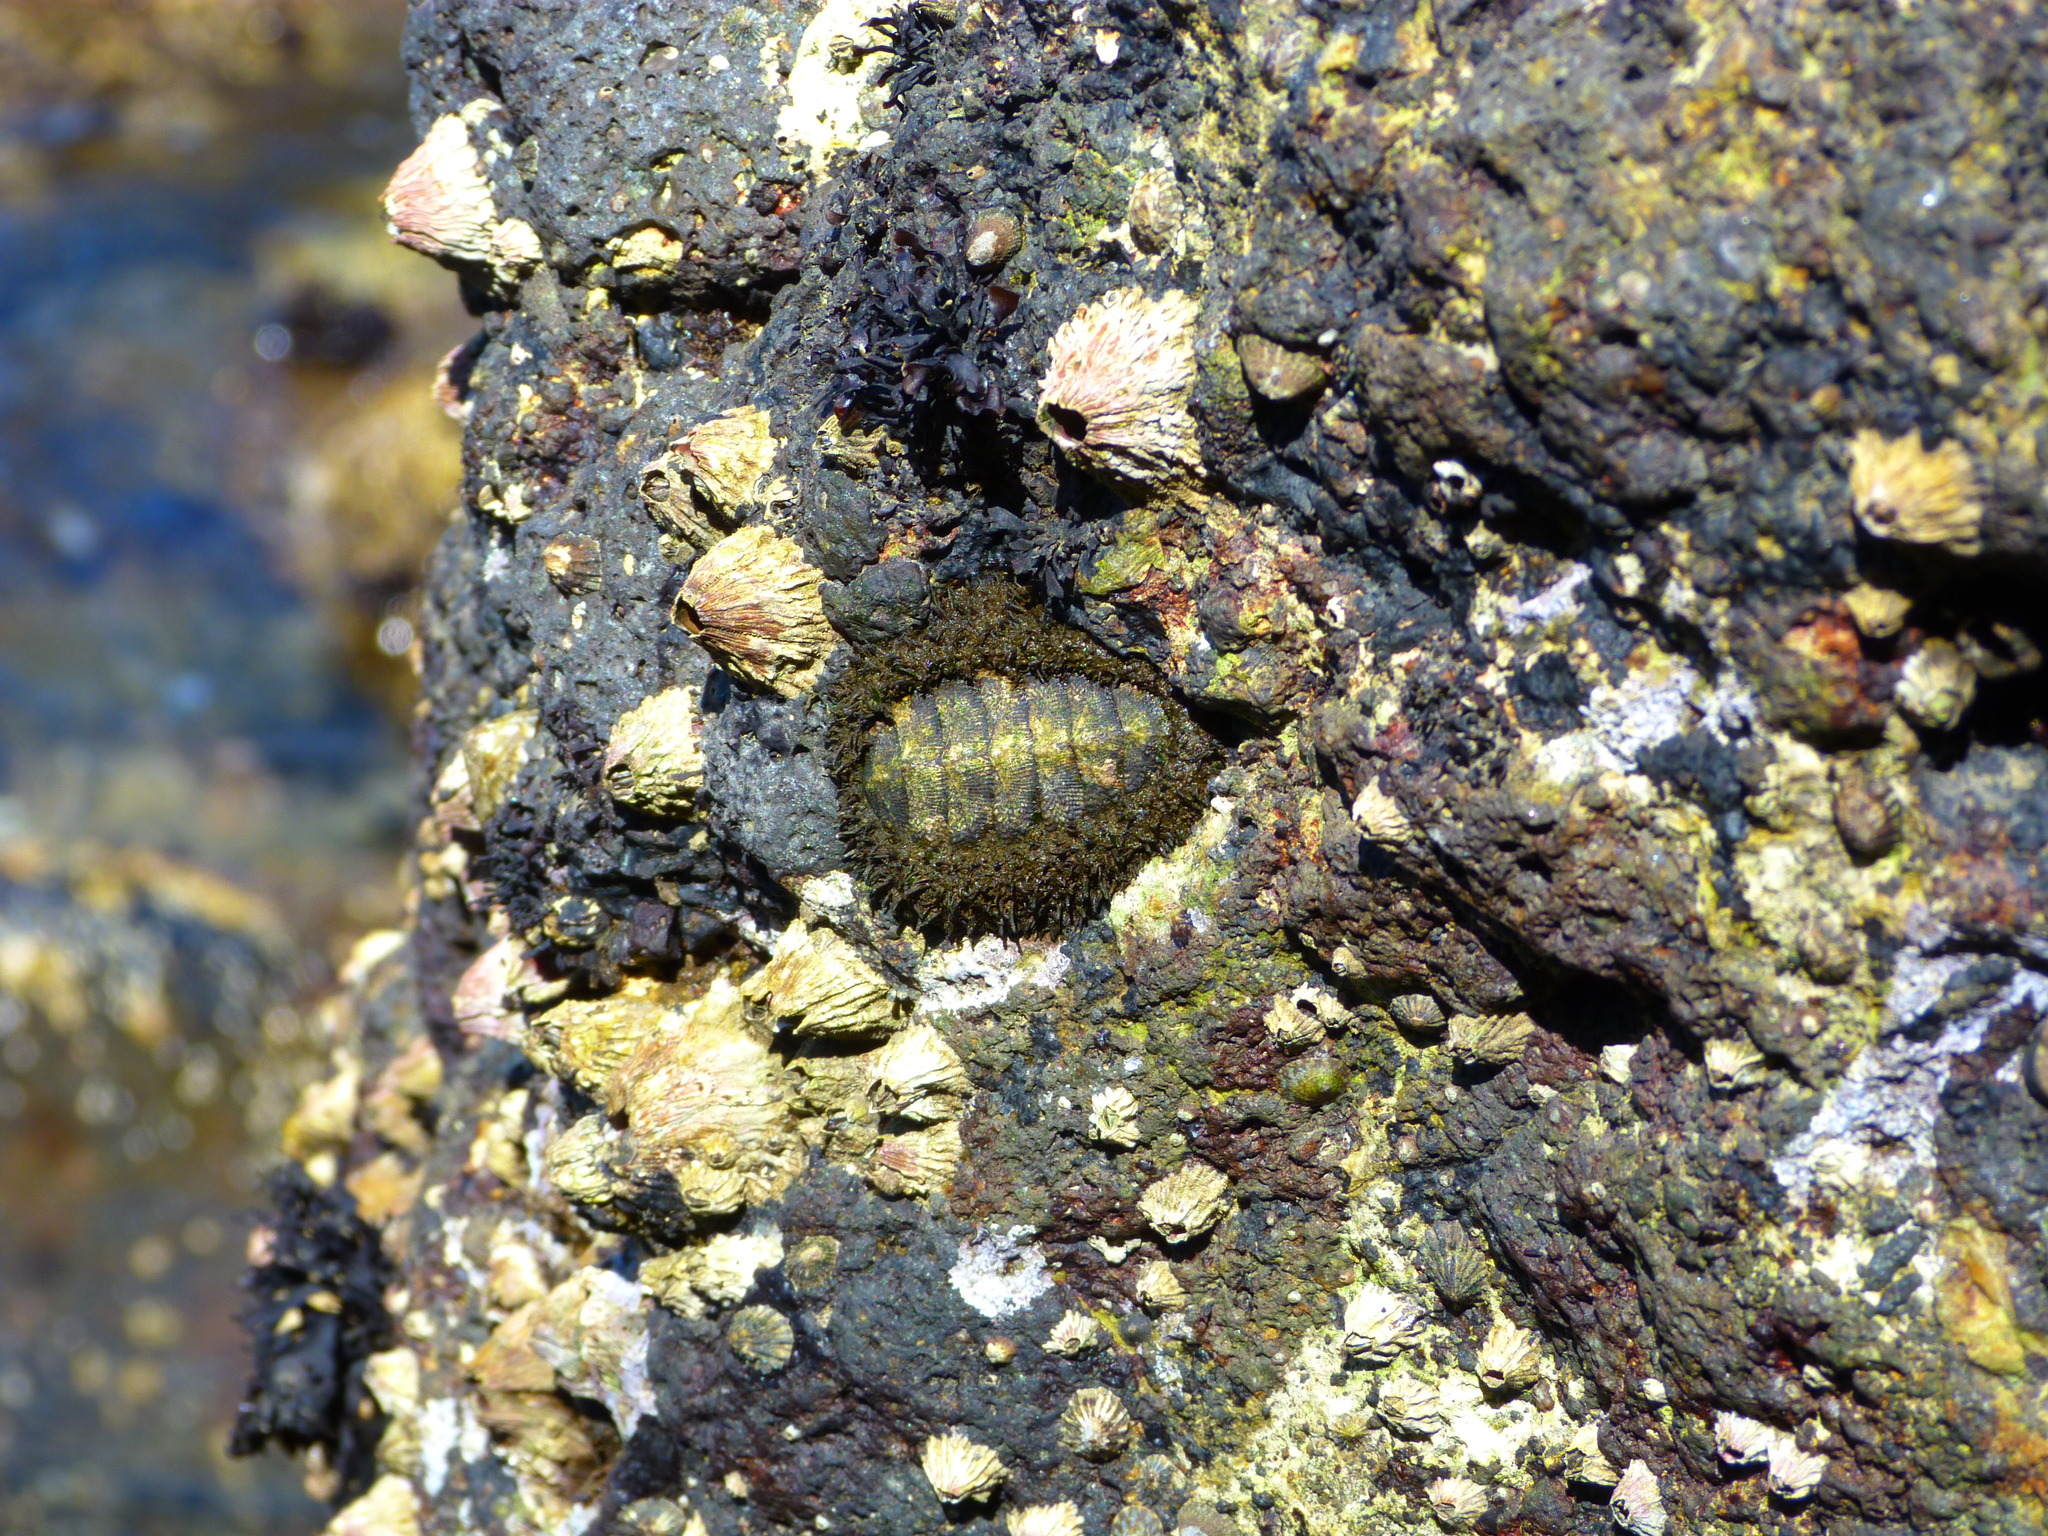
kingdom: Animalia
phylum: Mollusca
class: Polyplacophora
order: Chitonida
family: Mopaliidae
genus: Mopalia
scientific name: Mopalia muscosa
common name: Mossy chiton
